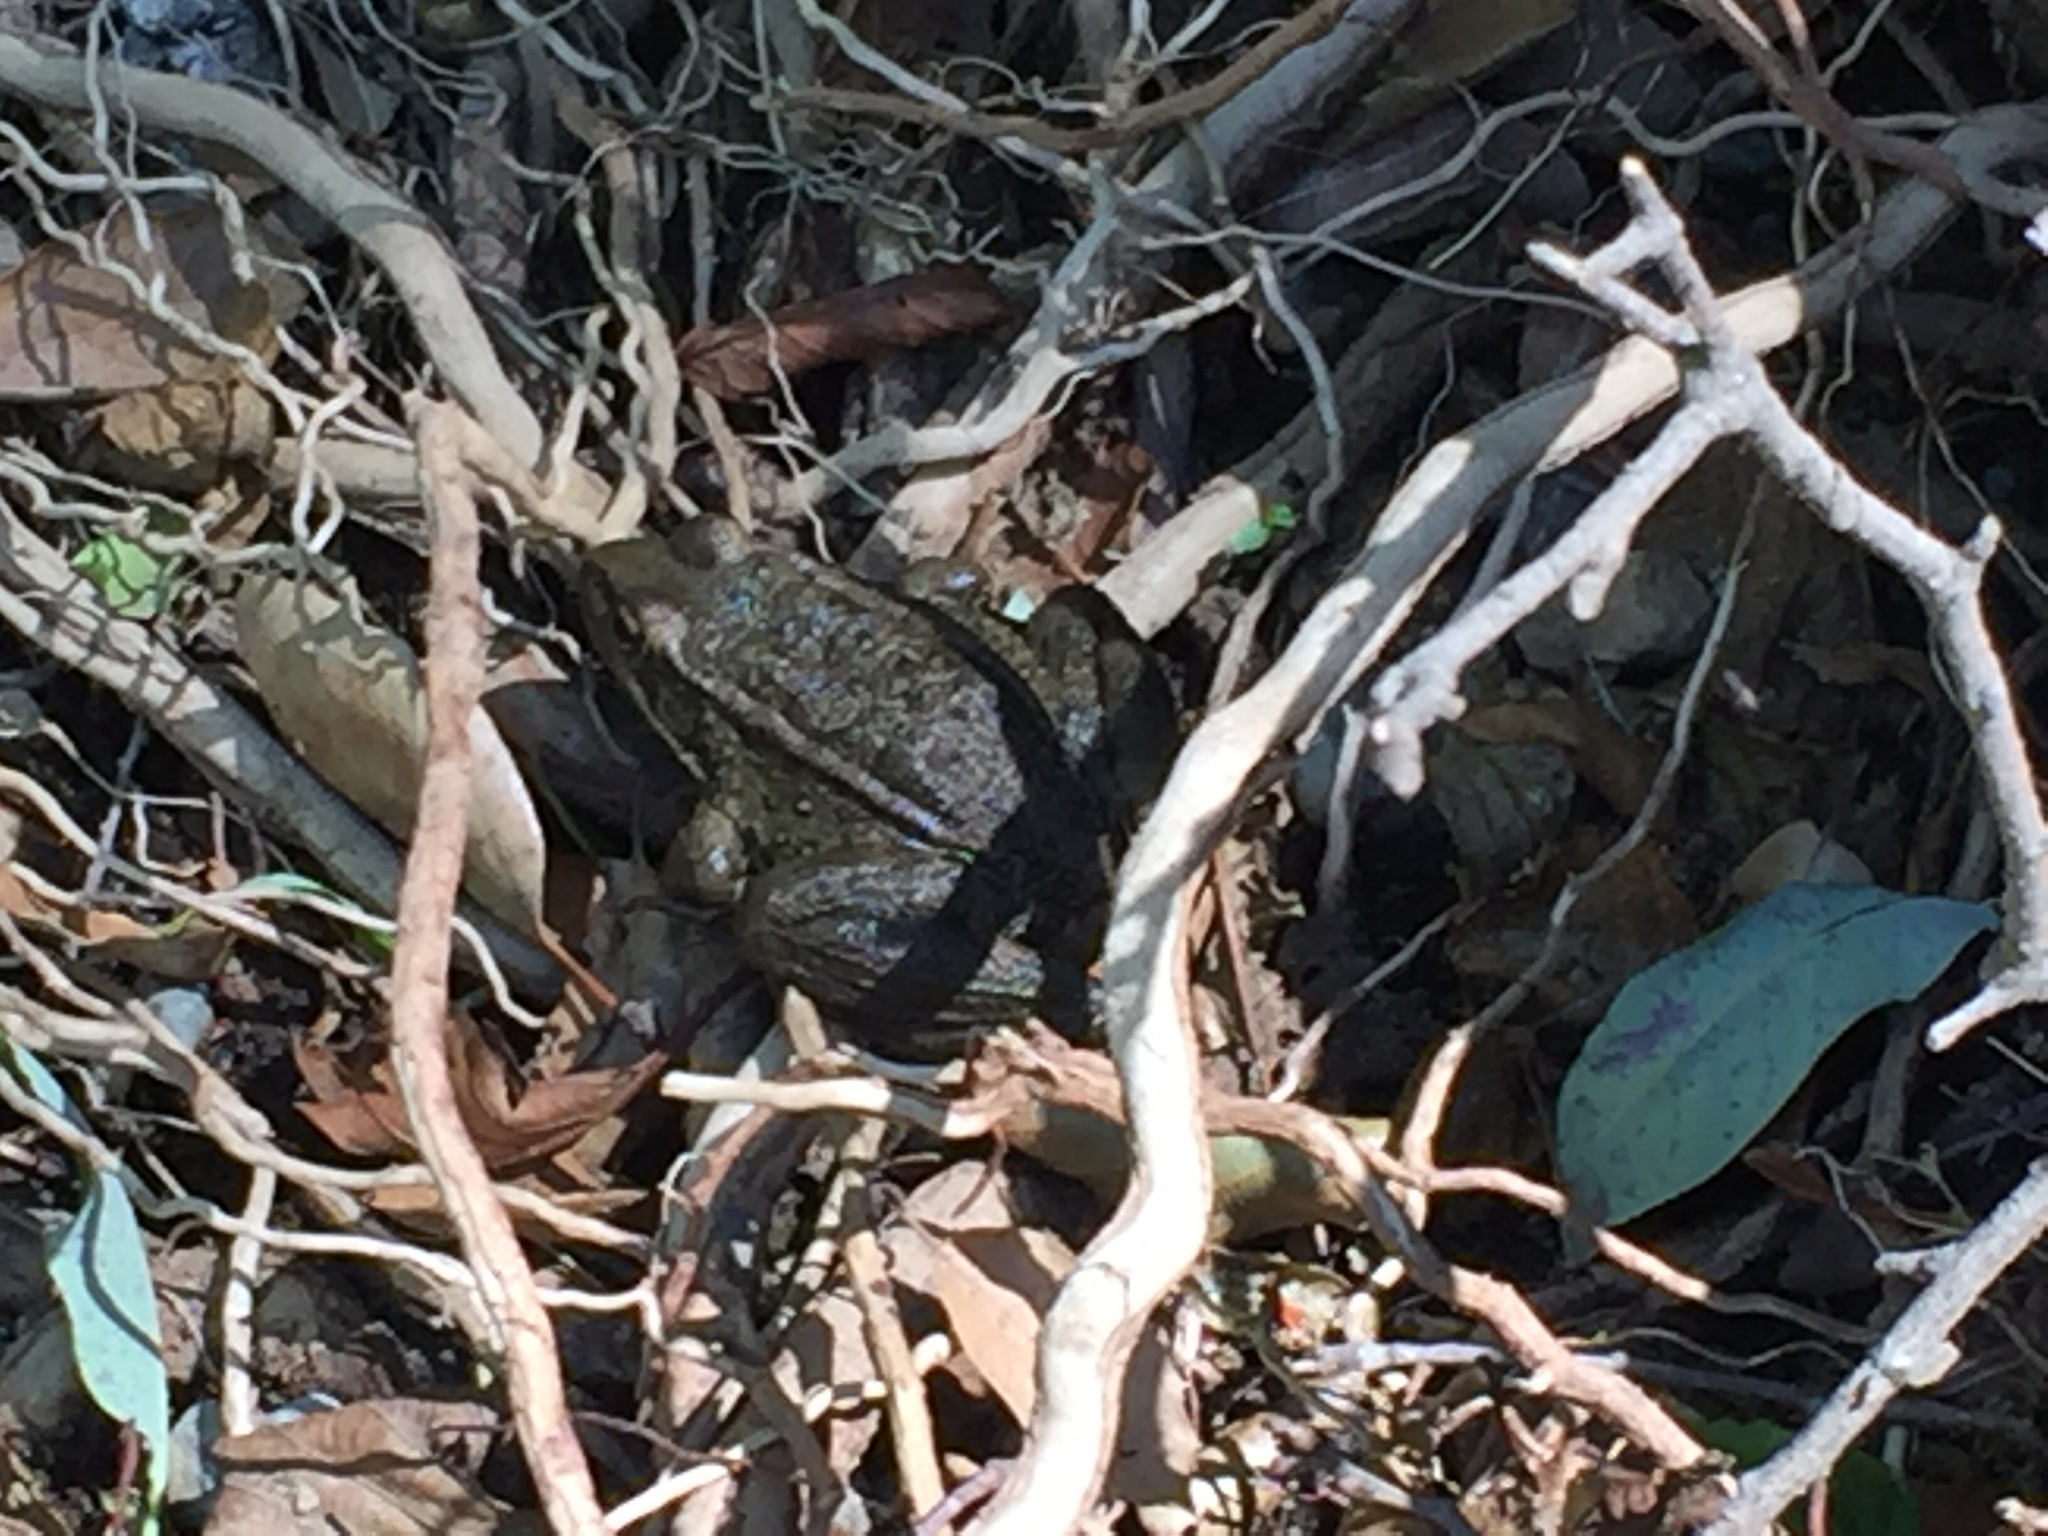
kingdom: Animalia
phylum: Chordata
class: Amphibia
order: Anura
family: Ranidae
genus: Rana
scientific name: Rana draytonii
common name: California red-legged frog
